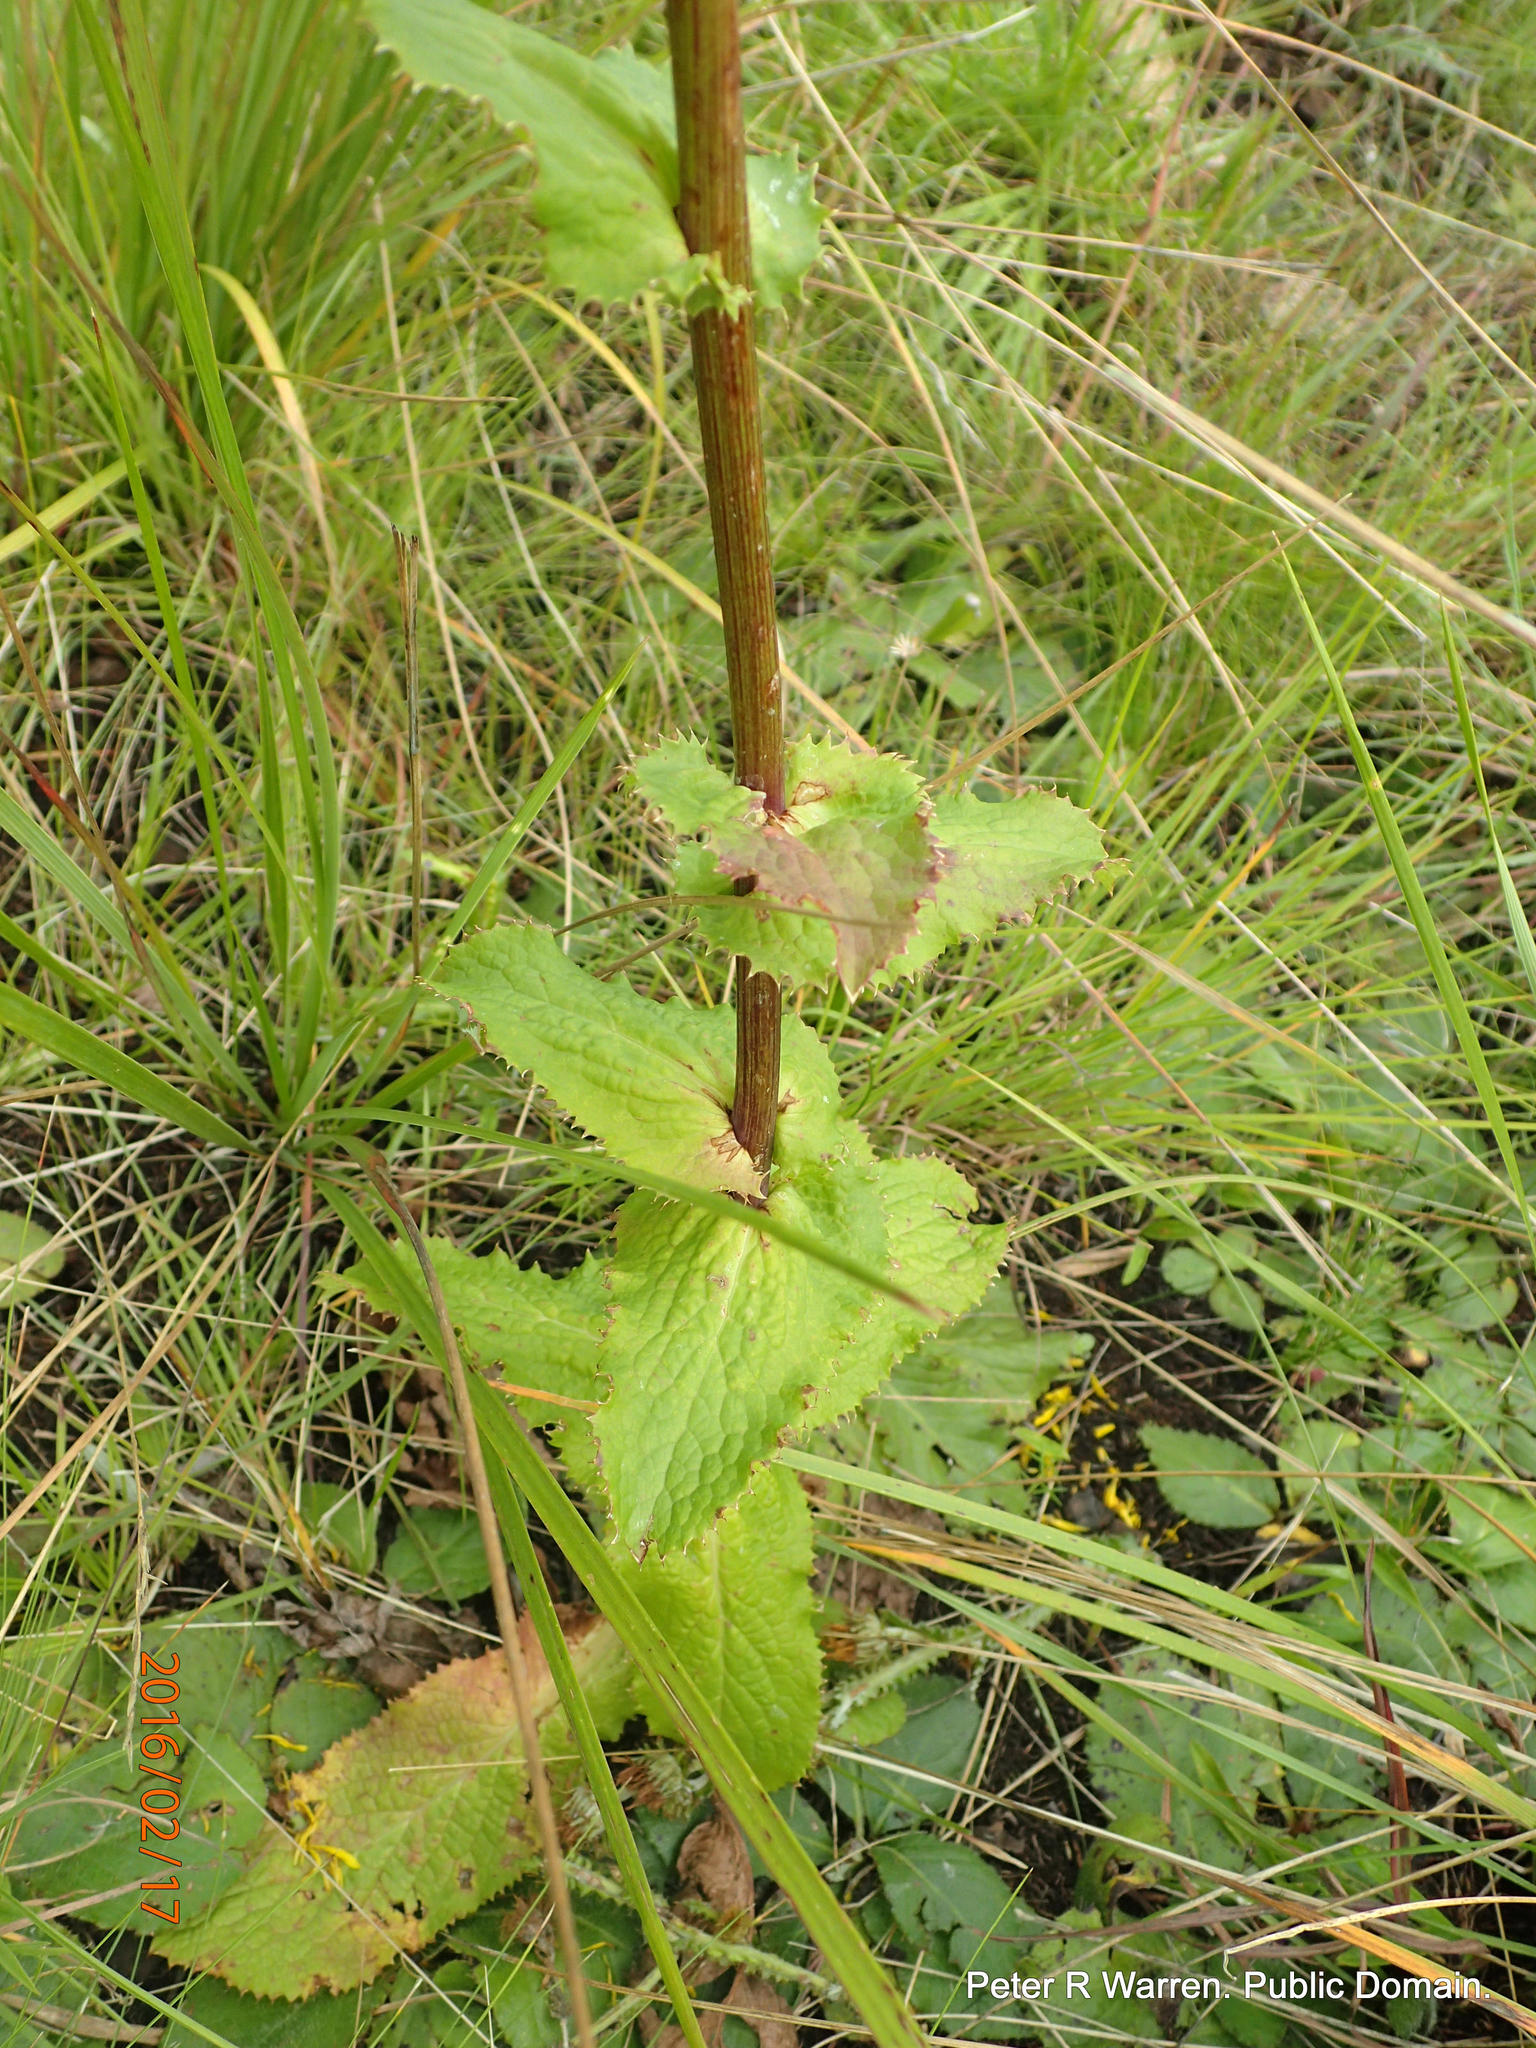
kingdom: Plantae
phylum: Tracheophyta
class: Magnoliopsida
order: Apiales
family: Apiaceae
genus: Alepidea
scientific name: Alepidea cordifolia
